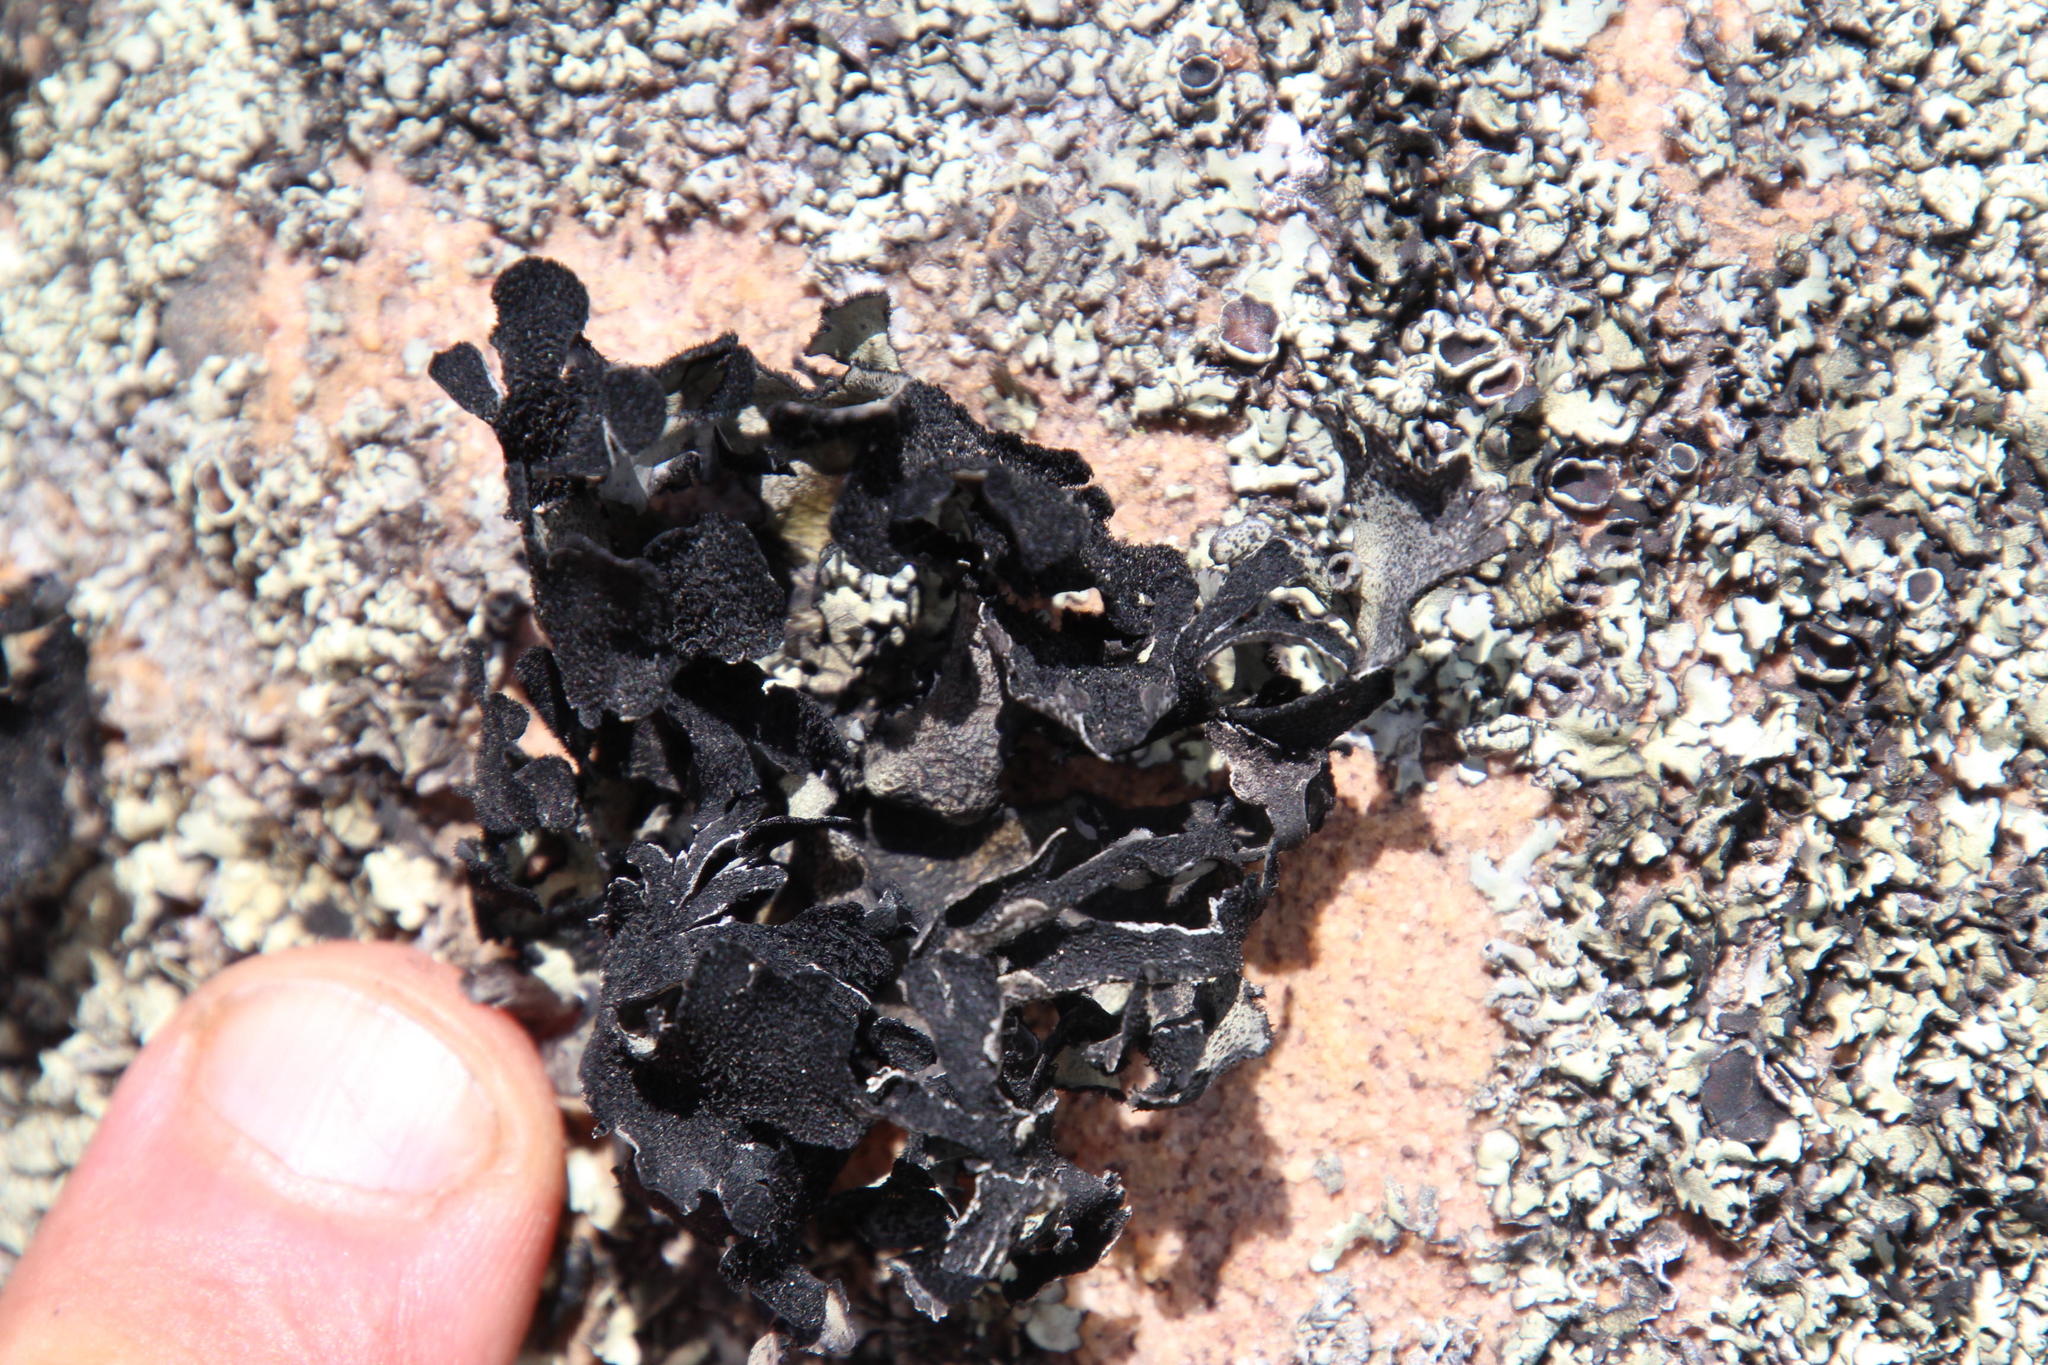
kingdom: Fungi
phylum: Ascomycota
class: Lecanoromycetes
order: Lecanorales
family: Parmeliaceae
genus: Xanthoparmelia
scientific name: Xanthoparmelia hottentotta
